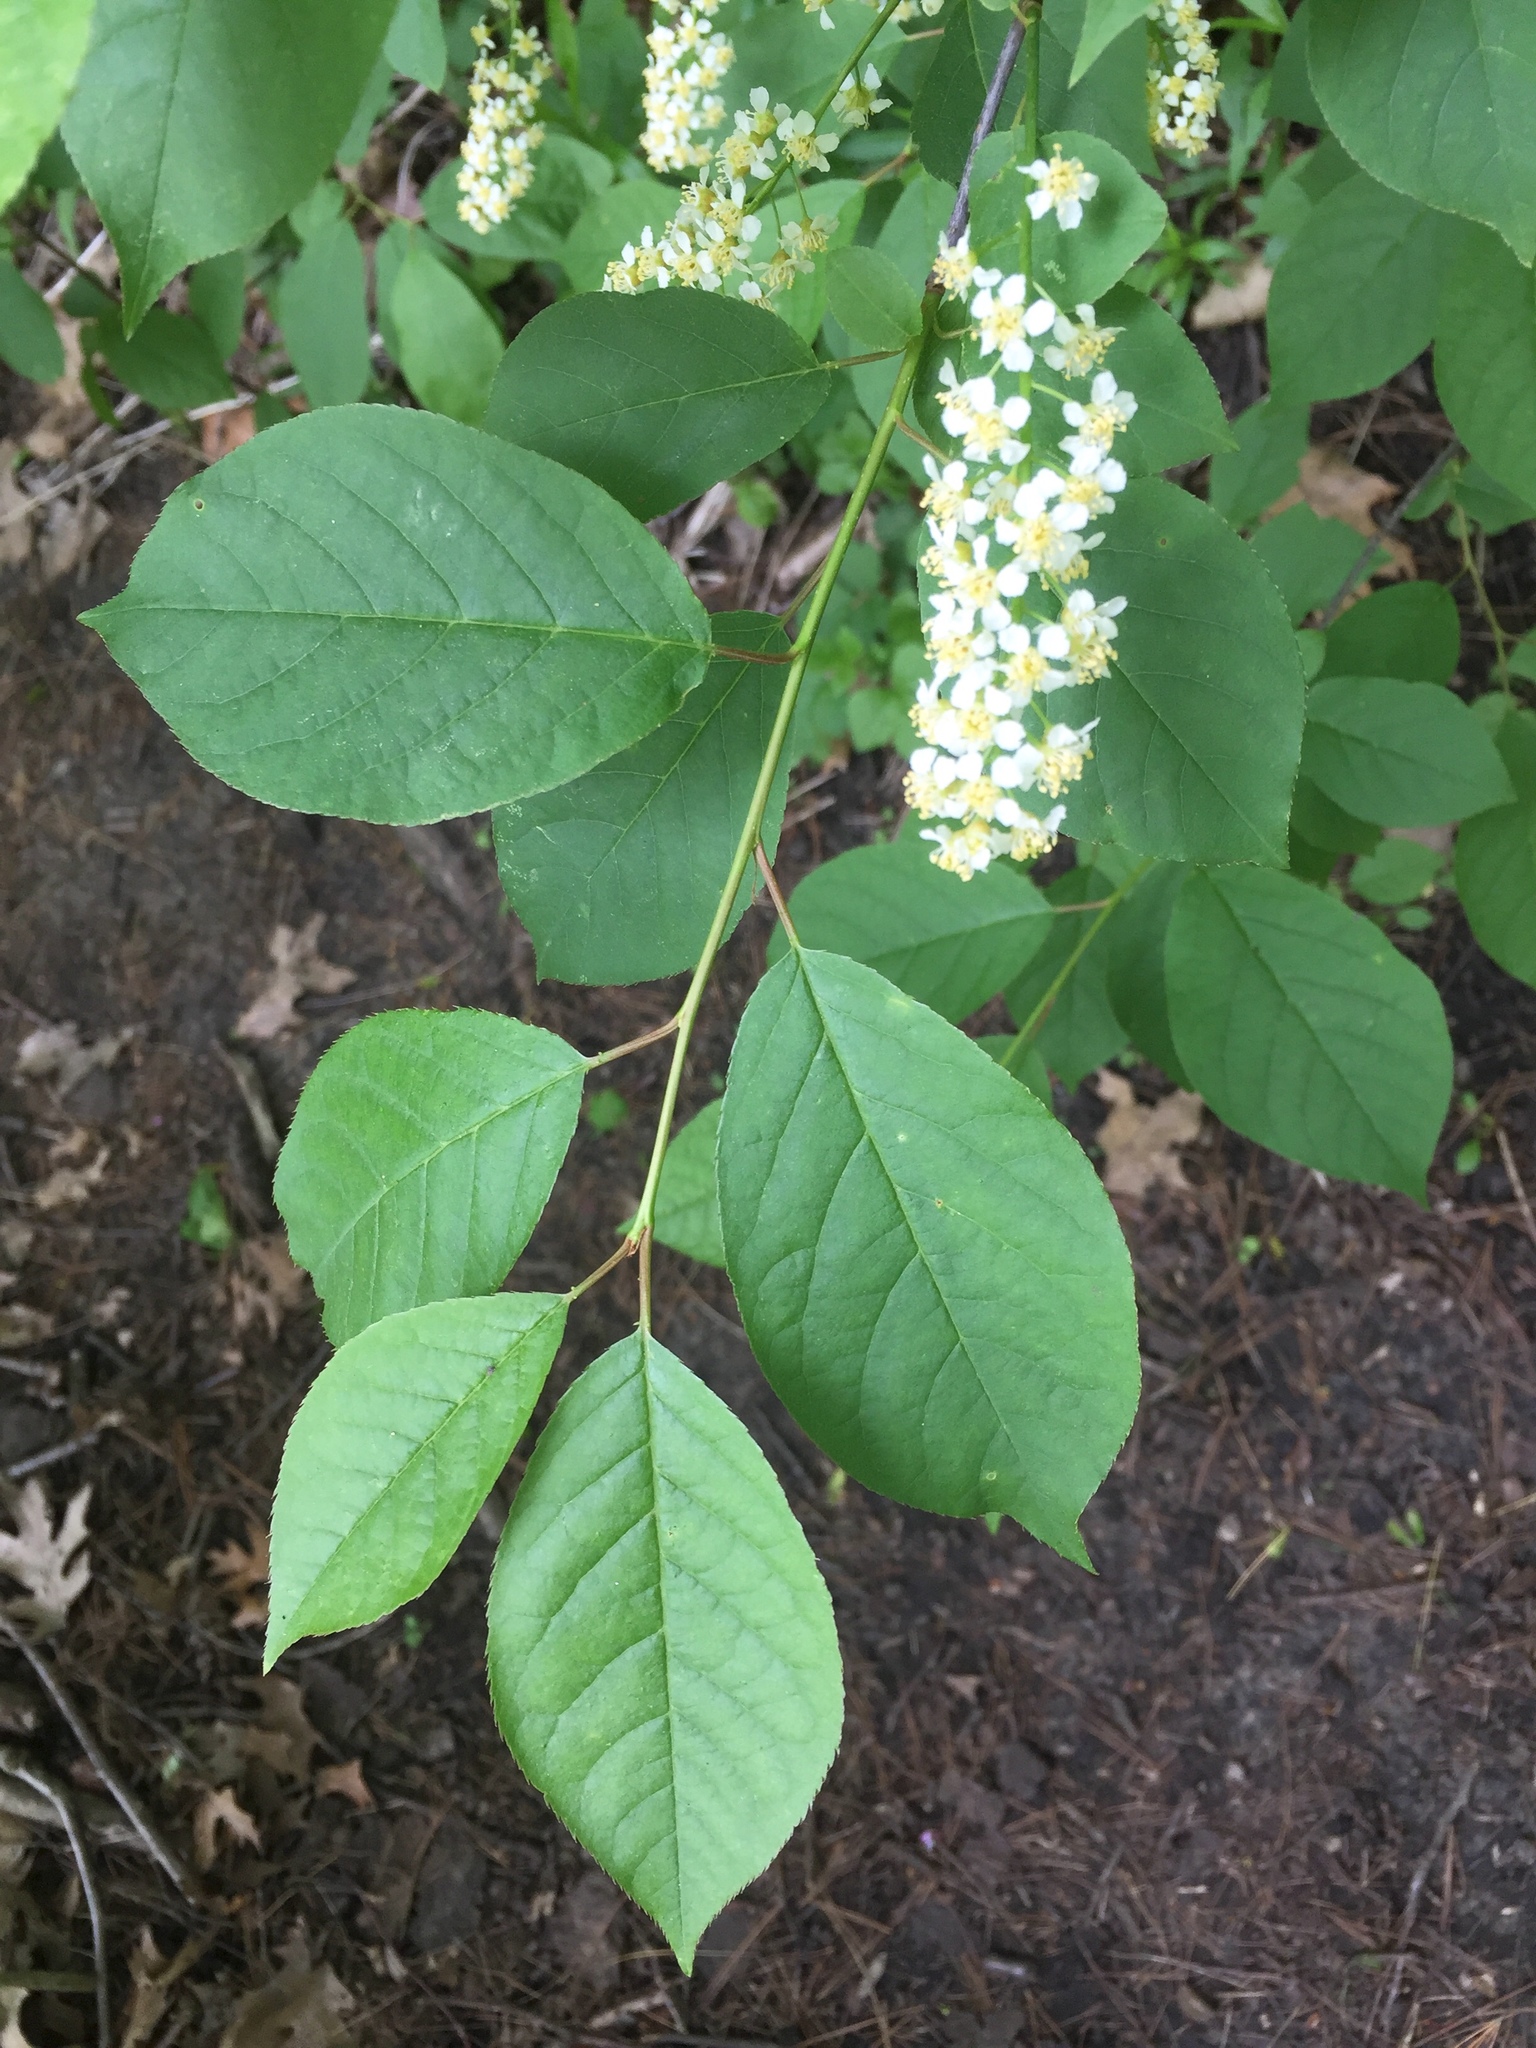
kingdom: Plantae
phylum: Tracheophyta
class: Magnoliopsida
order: Rosales
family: Rosaceae
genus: Prunus
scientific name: Prunus virginiana
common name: Chokecherry
